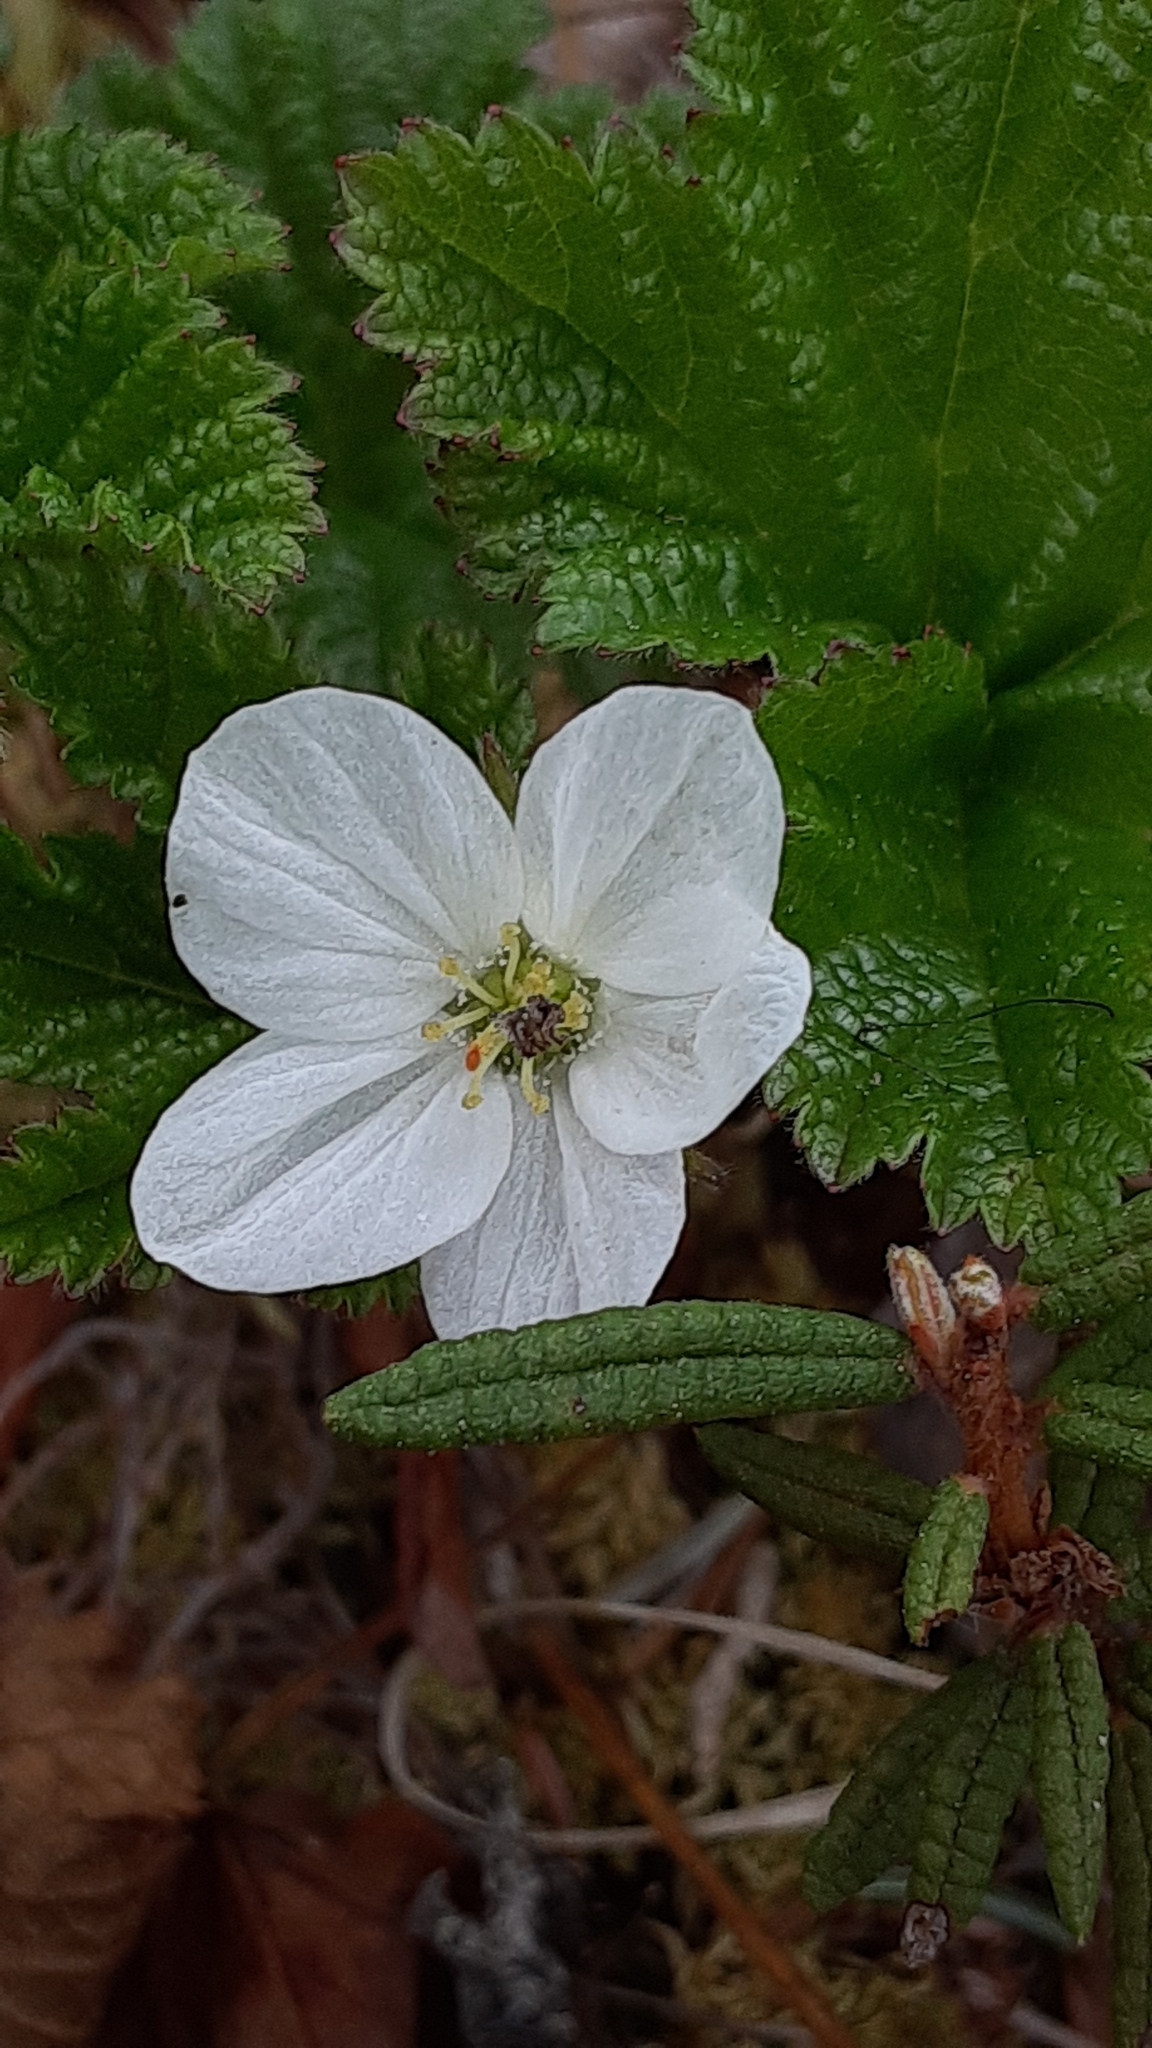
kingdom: Plantae
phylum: Tracheophyta
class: Magnoliopsida
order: Rosales
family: Rosaceae
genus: Rubus
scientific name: Rubus chamaemorus
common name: Cloudberry
